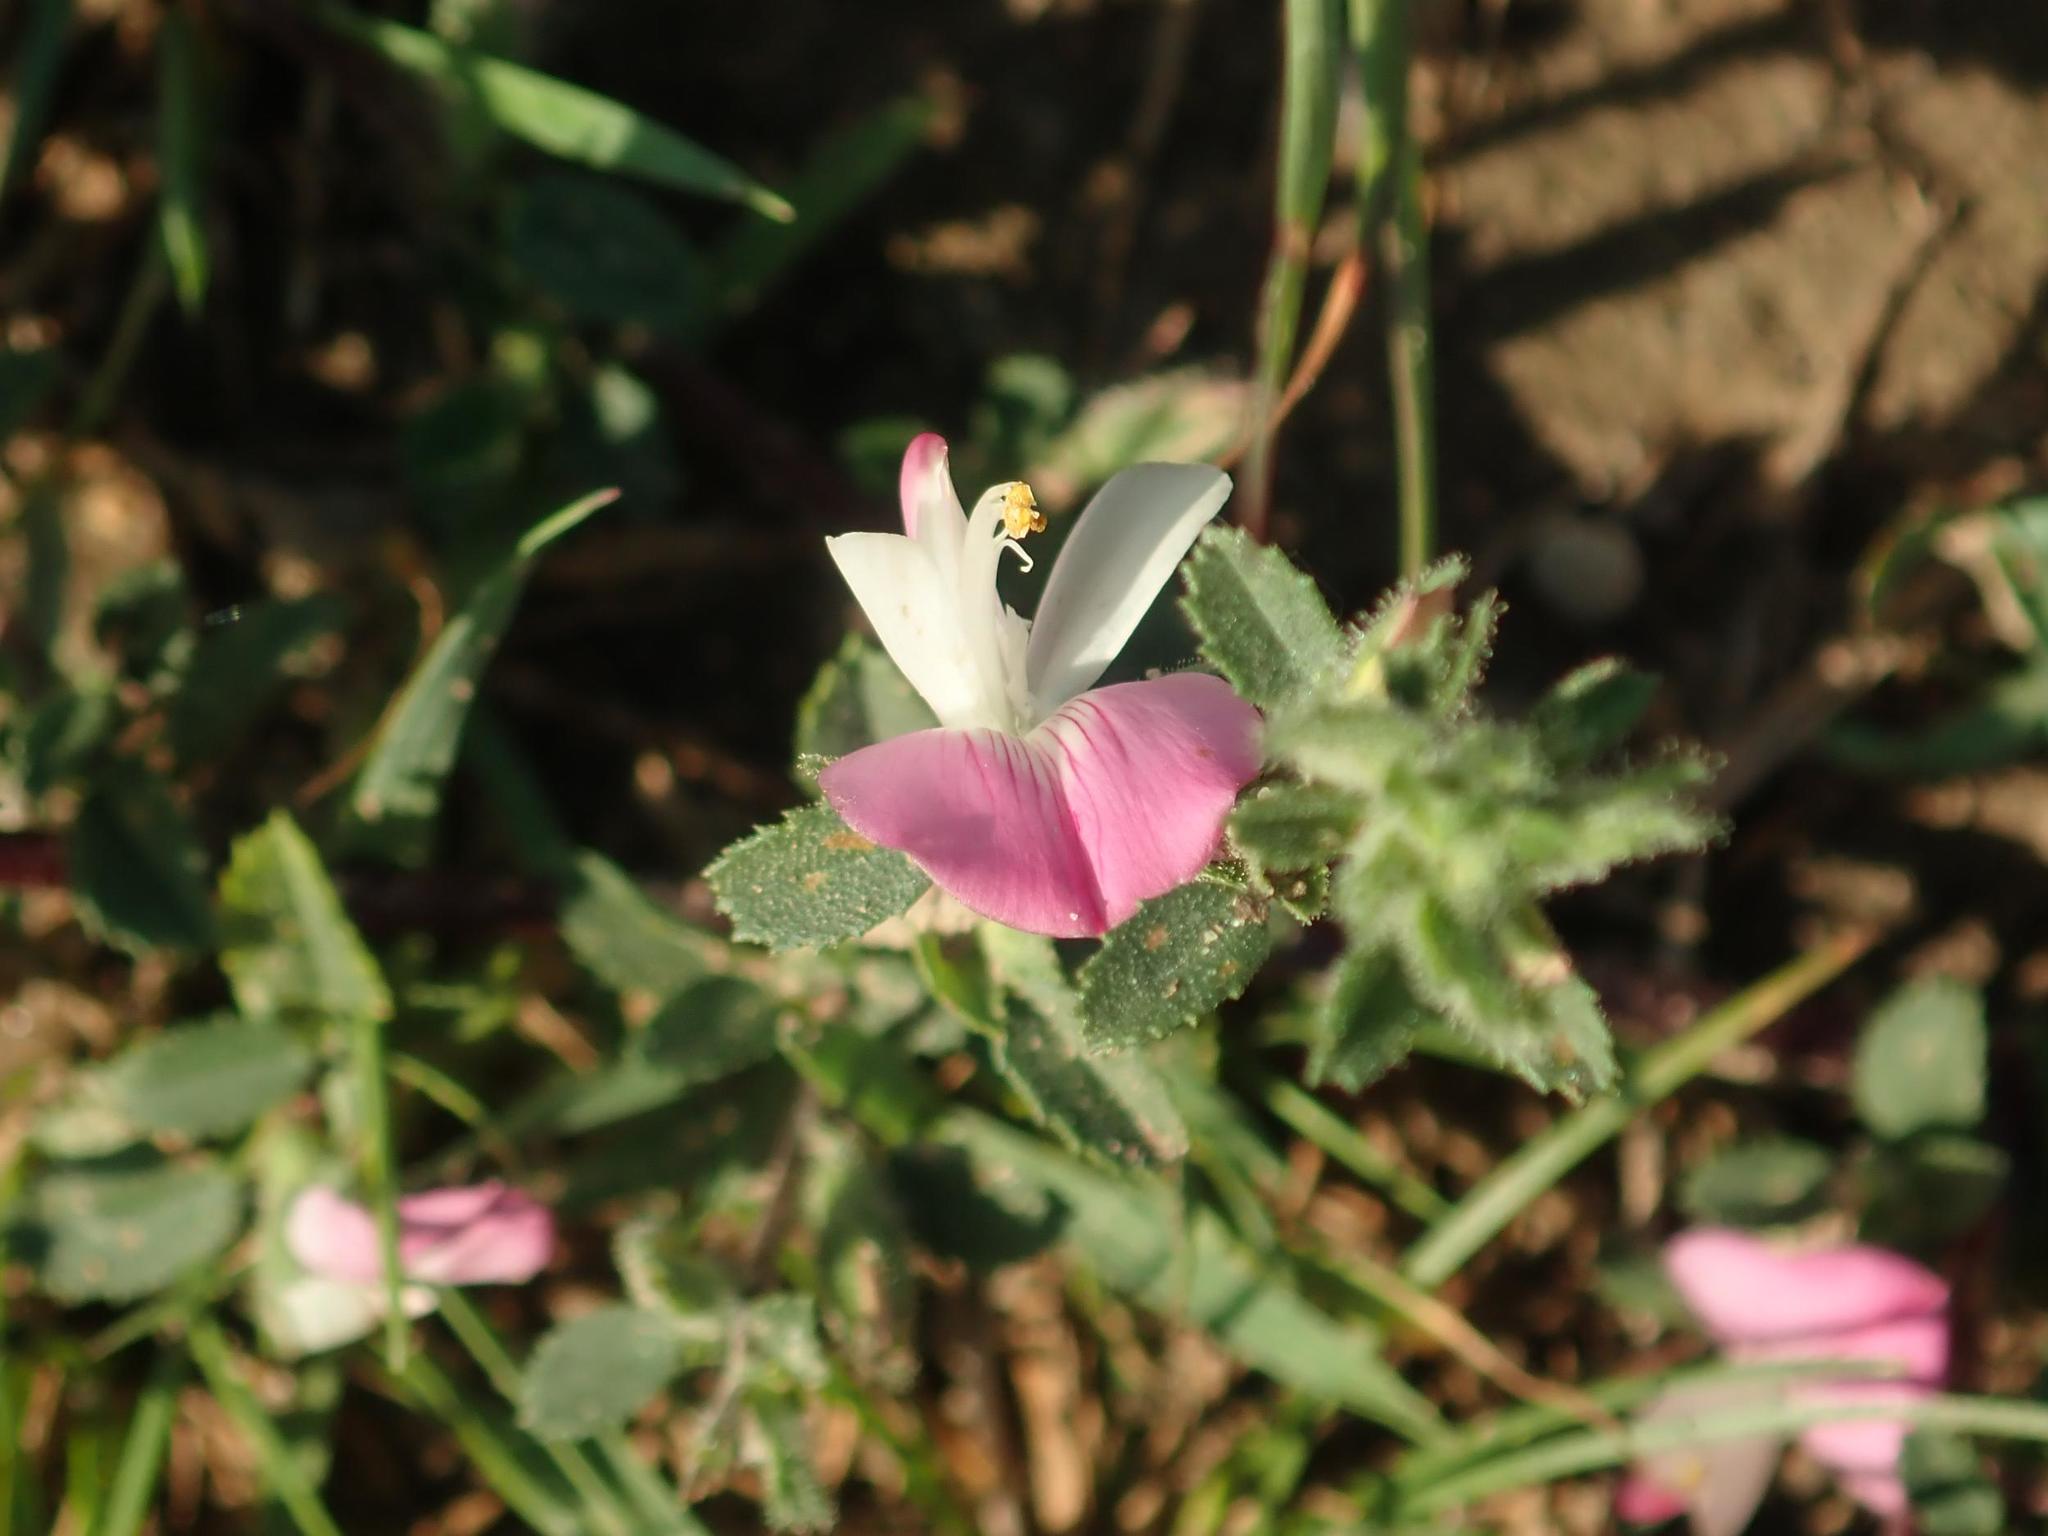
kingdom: Plantae
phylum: Tracheophyta
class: Magnoliopsida
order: Fabales
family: Fabaceae
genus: Ononis
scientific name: Ononis spinosa
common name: Spiny restharrow
